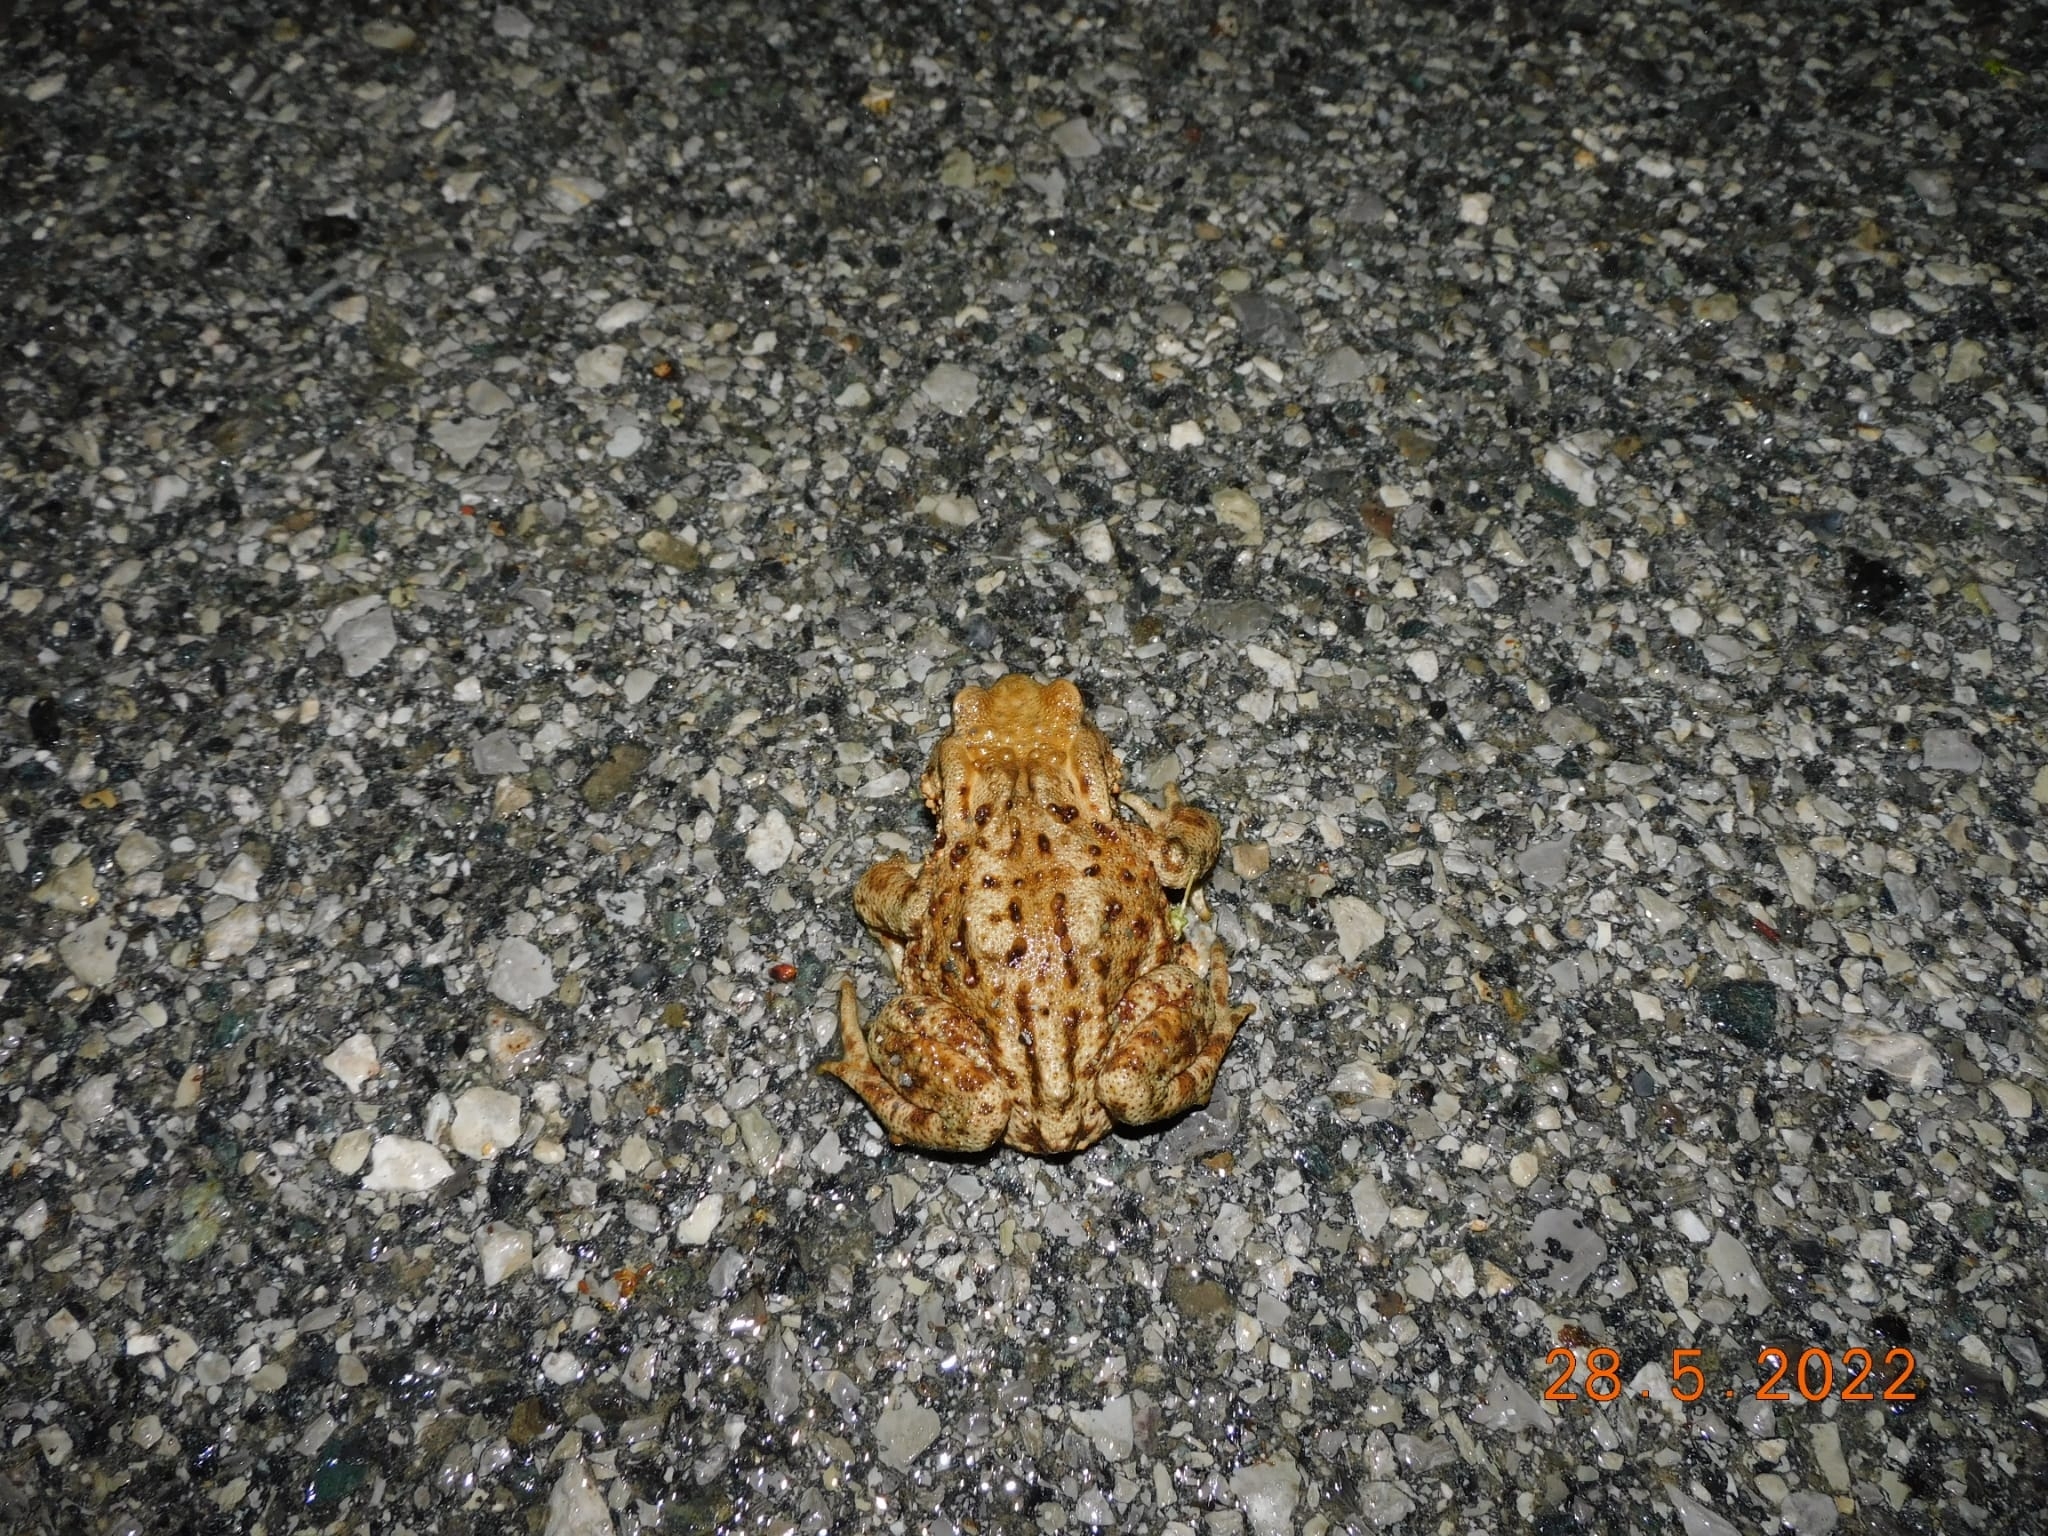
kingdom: Animalia
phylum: Chordata
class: Amphibia
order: Anura
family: Bufonidae
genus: Bufo
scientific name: Bufo bufo
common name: Common toad
